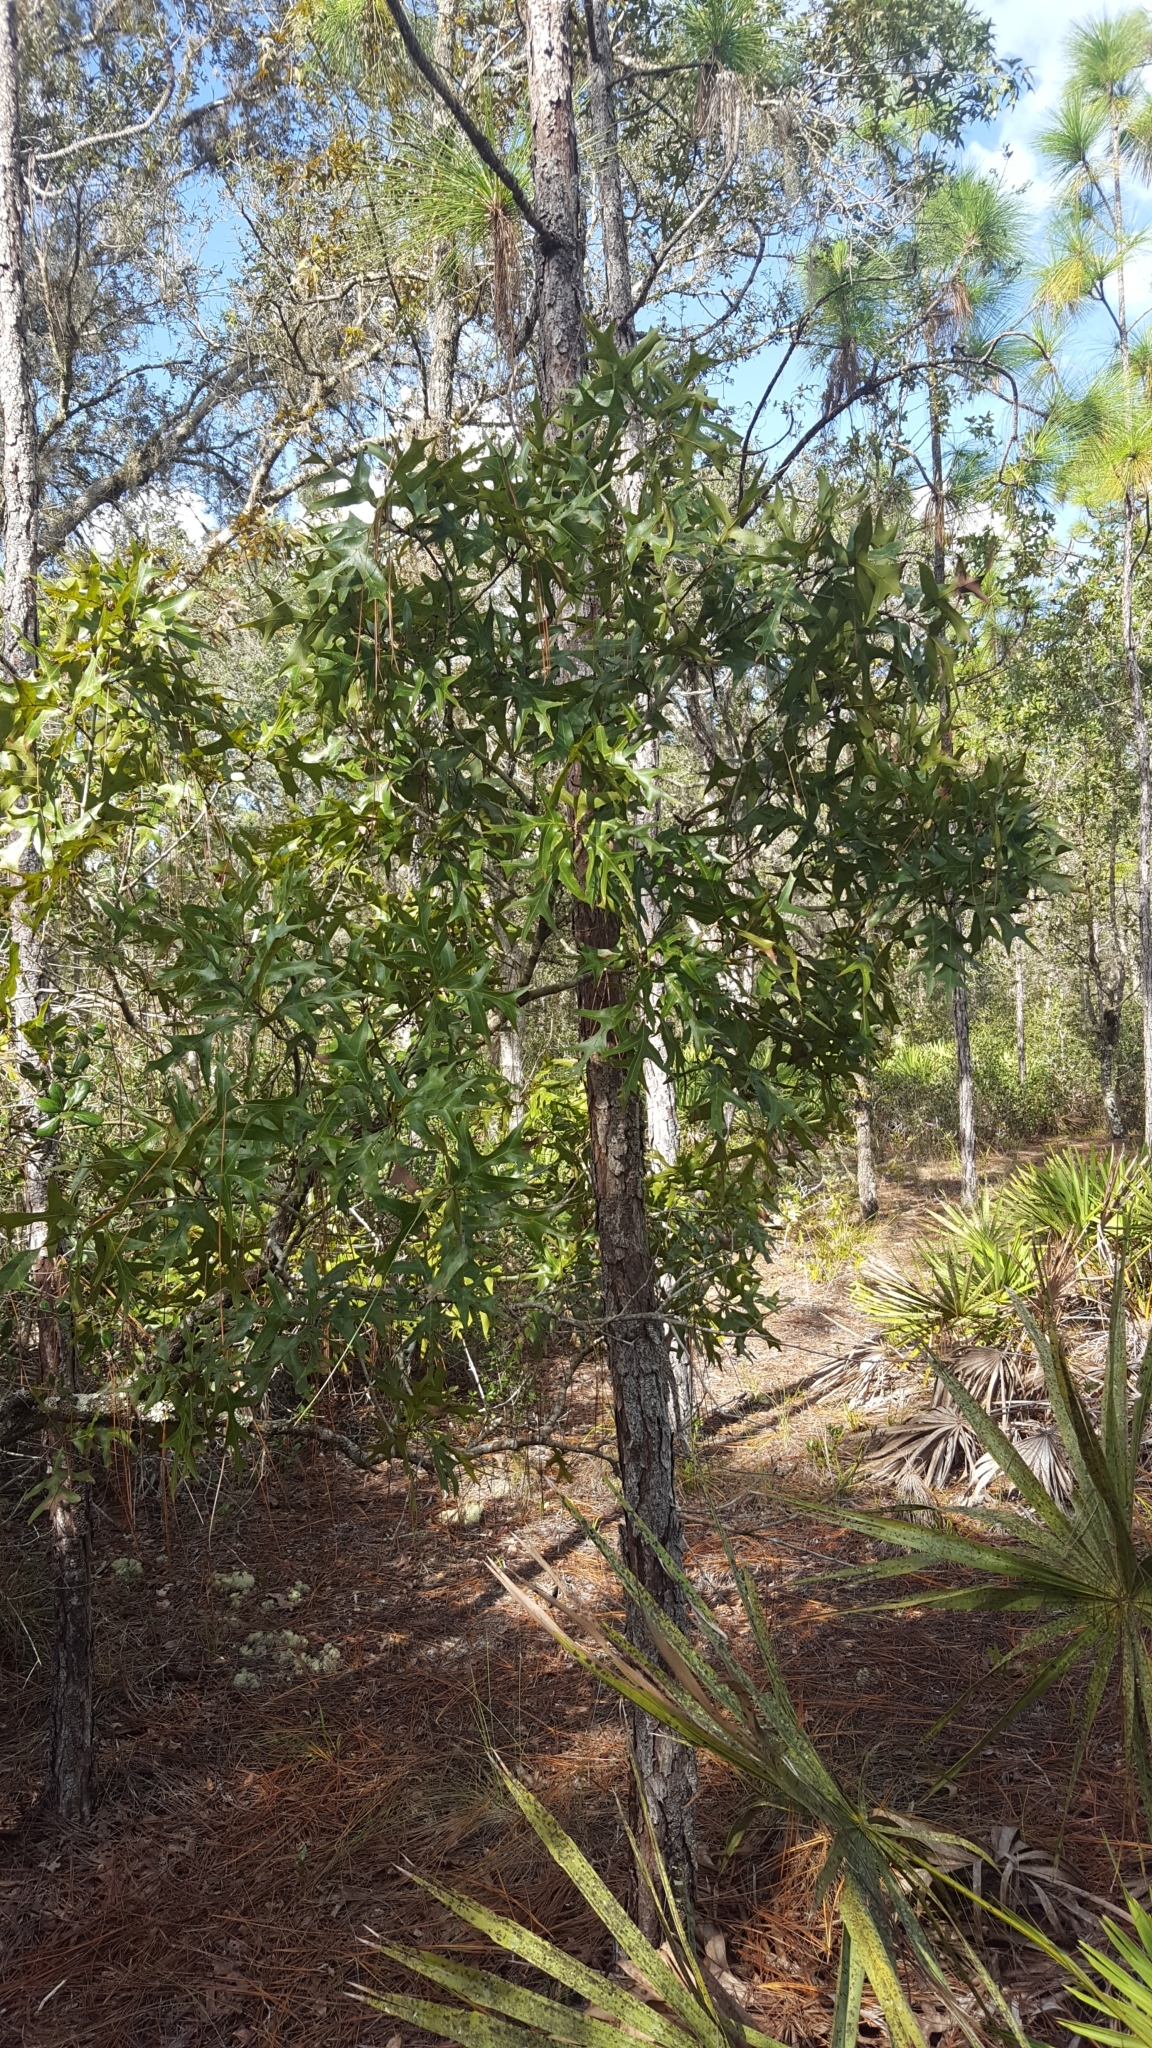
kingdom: Plantae
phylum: Tracheophyta
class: Magnoliopsida
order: Fagales
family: Fagaceae
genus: Quercus
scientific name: Quercus laevis
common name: Turkey oak
